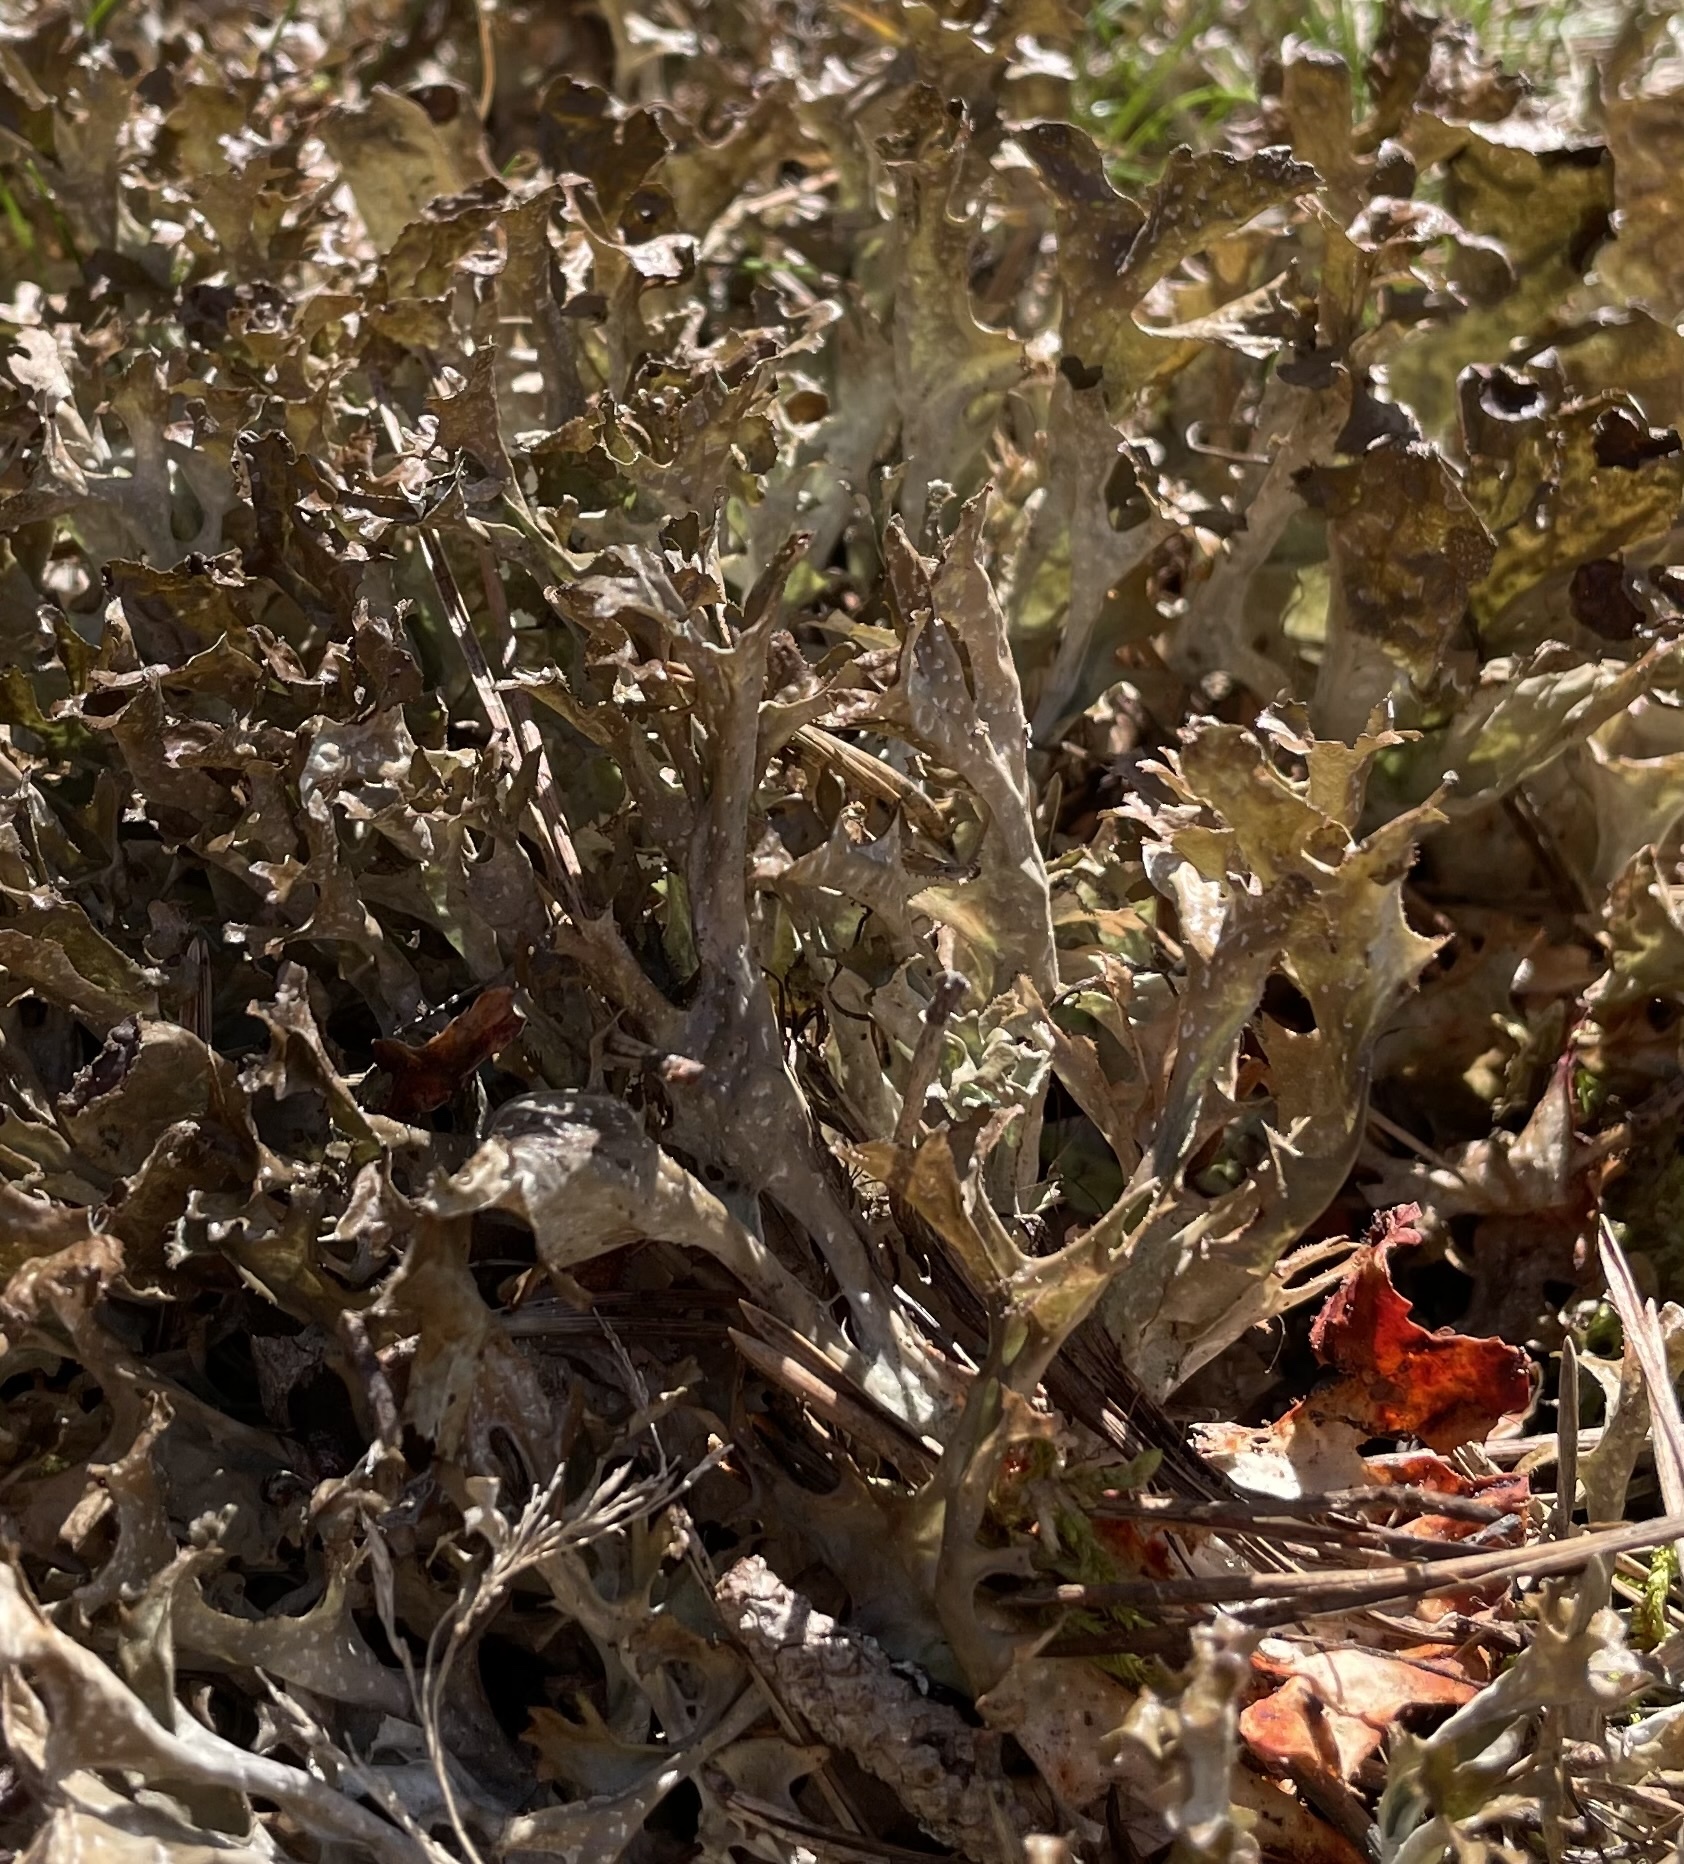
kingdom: Fungi
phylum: Ascomycota
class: Lecanoromycetes
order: Lecanorales
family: Parmeliaceae
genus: Cetraria
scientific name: Cetraria islandica
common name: Iceland lichen
